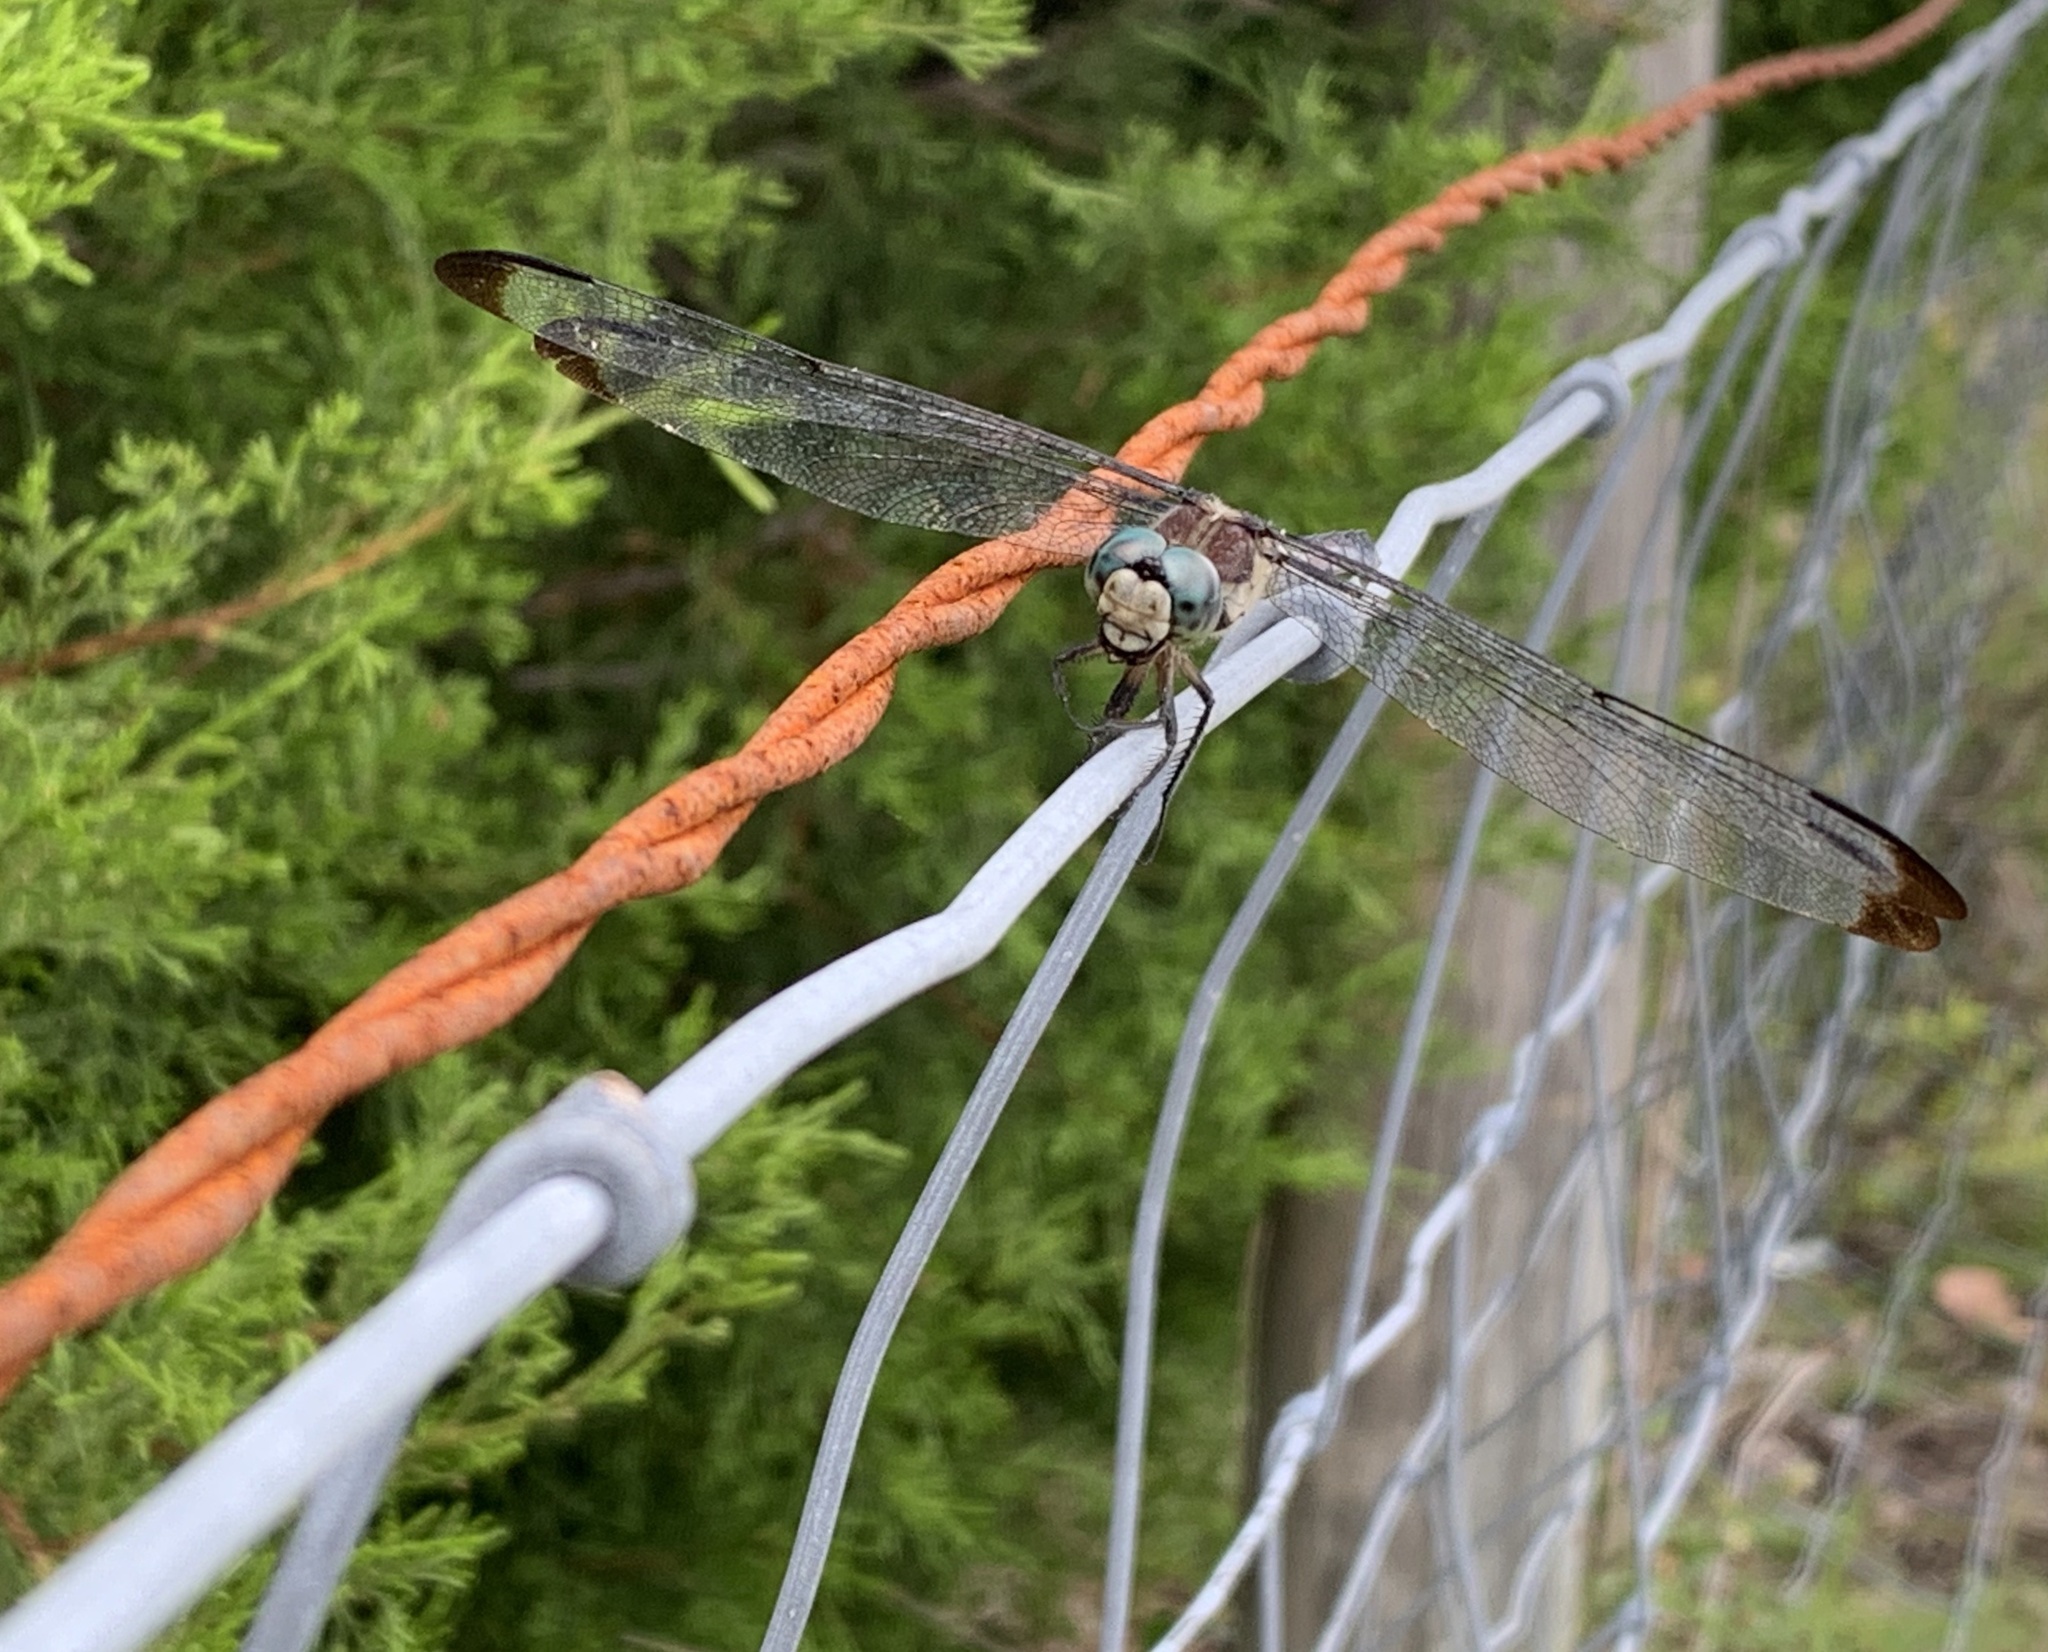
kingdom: Animalia
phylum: Arthropoda
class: Insecta
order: Odonata
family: Libellulidae
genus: Libellula
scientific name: Libellula vibrans
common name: Great blue skimmer
